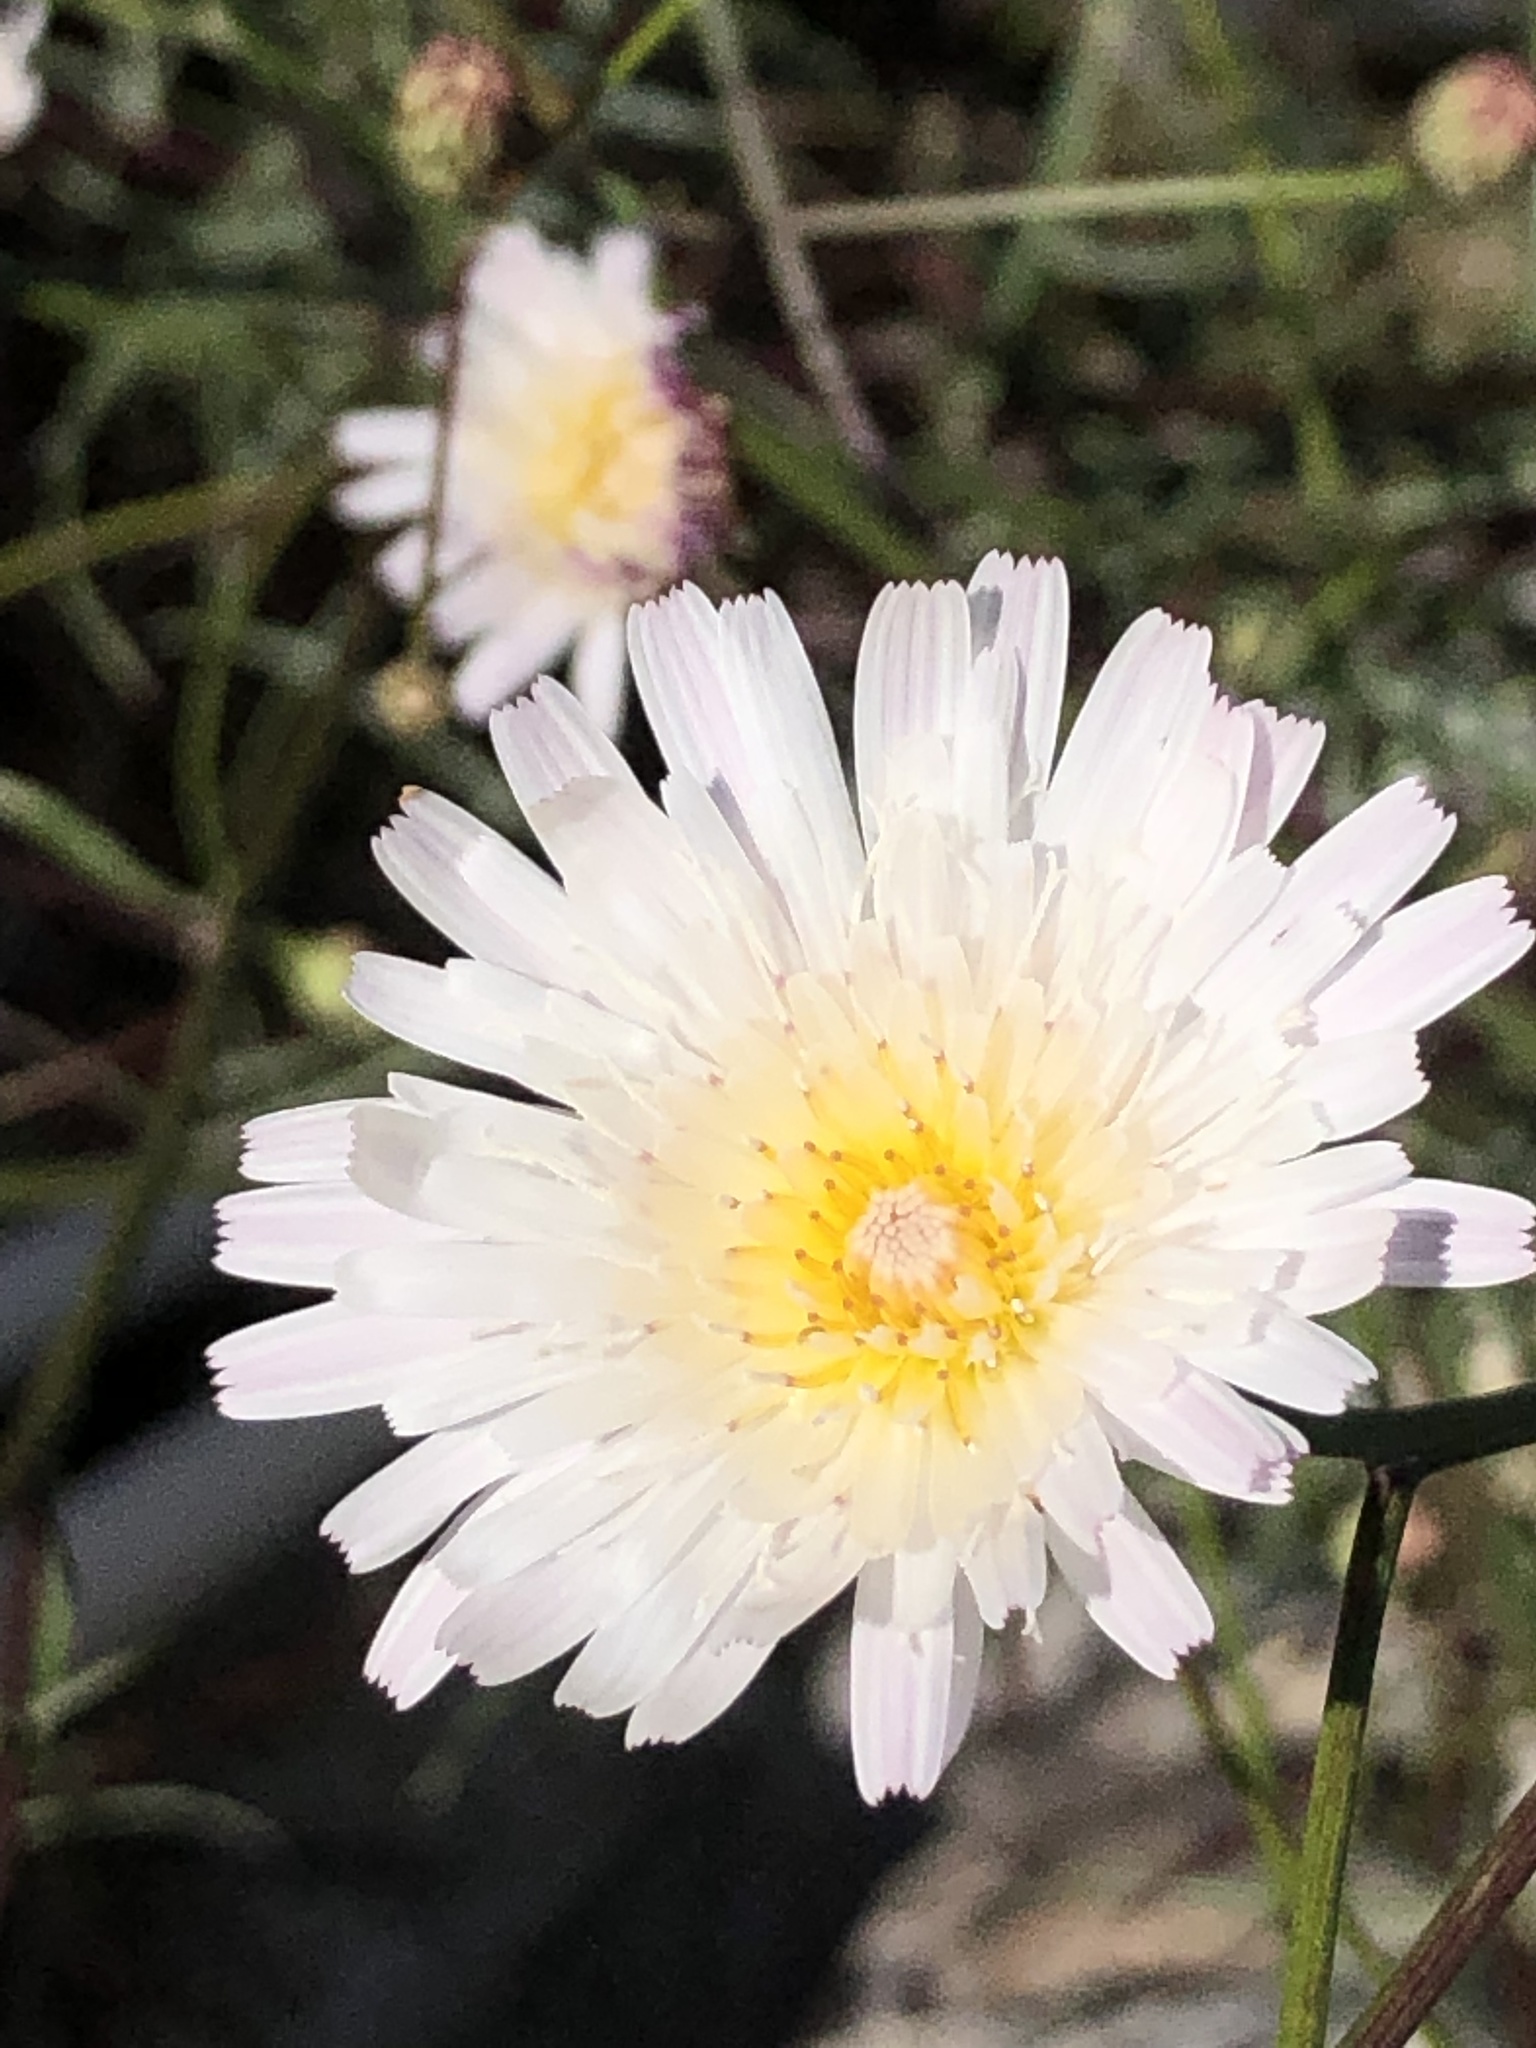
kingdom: Plantae
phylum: Tracheophyta
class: Magnoliopsida
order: Asterales
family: Asteraceae
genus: Malacothrix
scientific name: Malacothrix saxatilis
